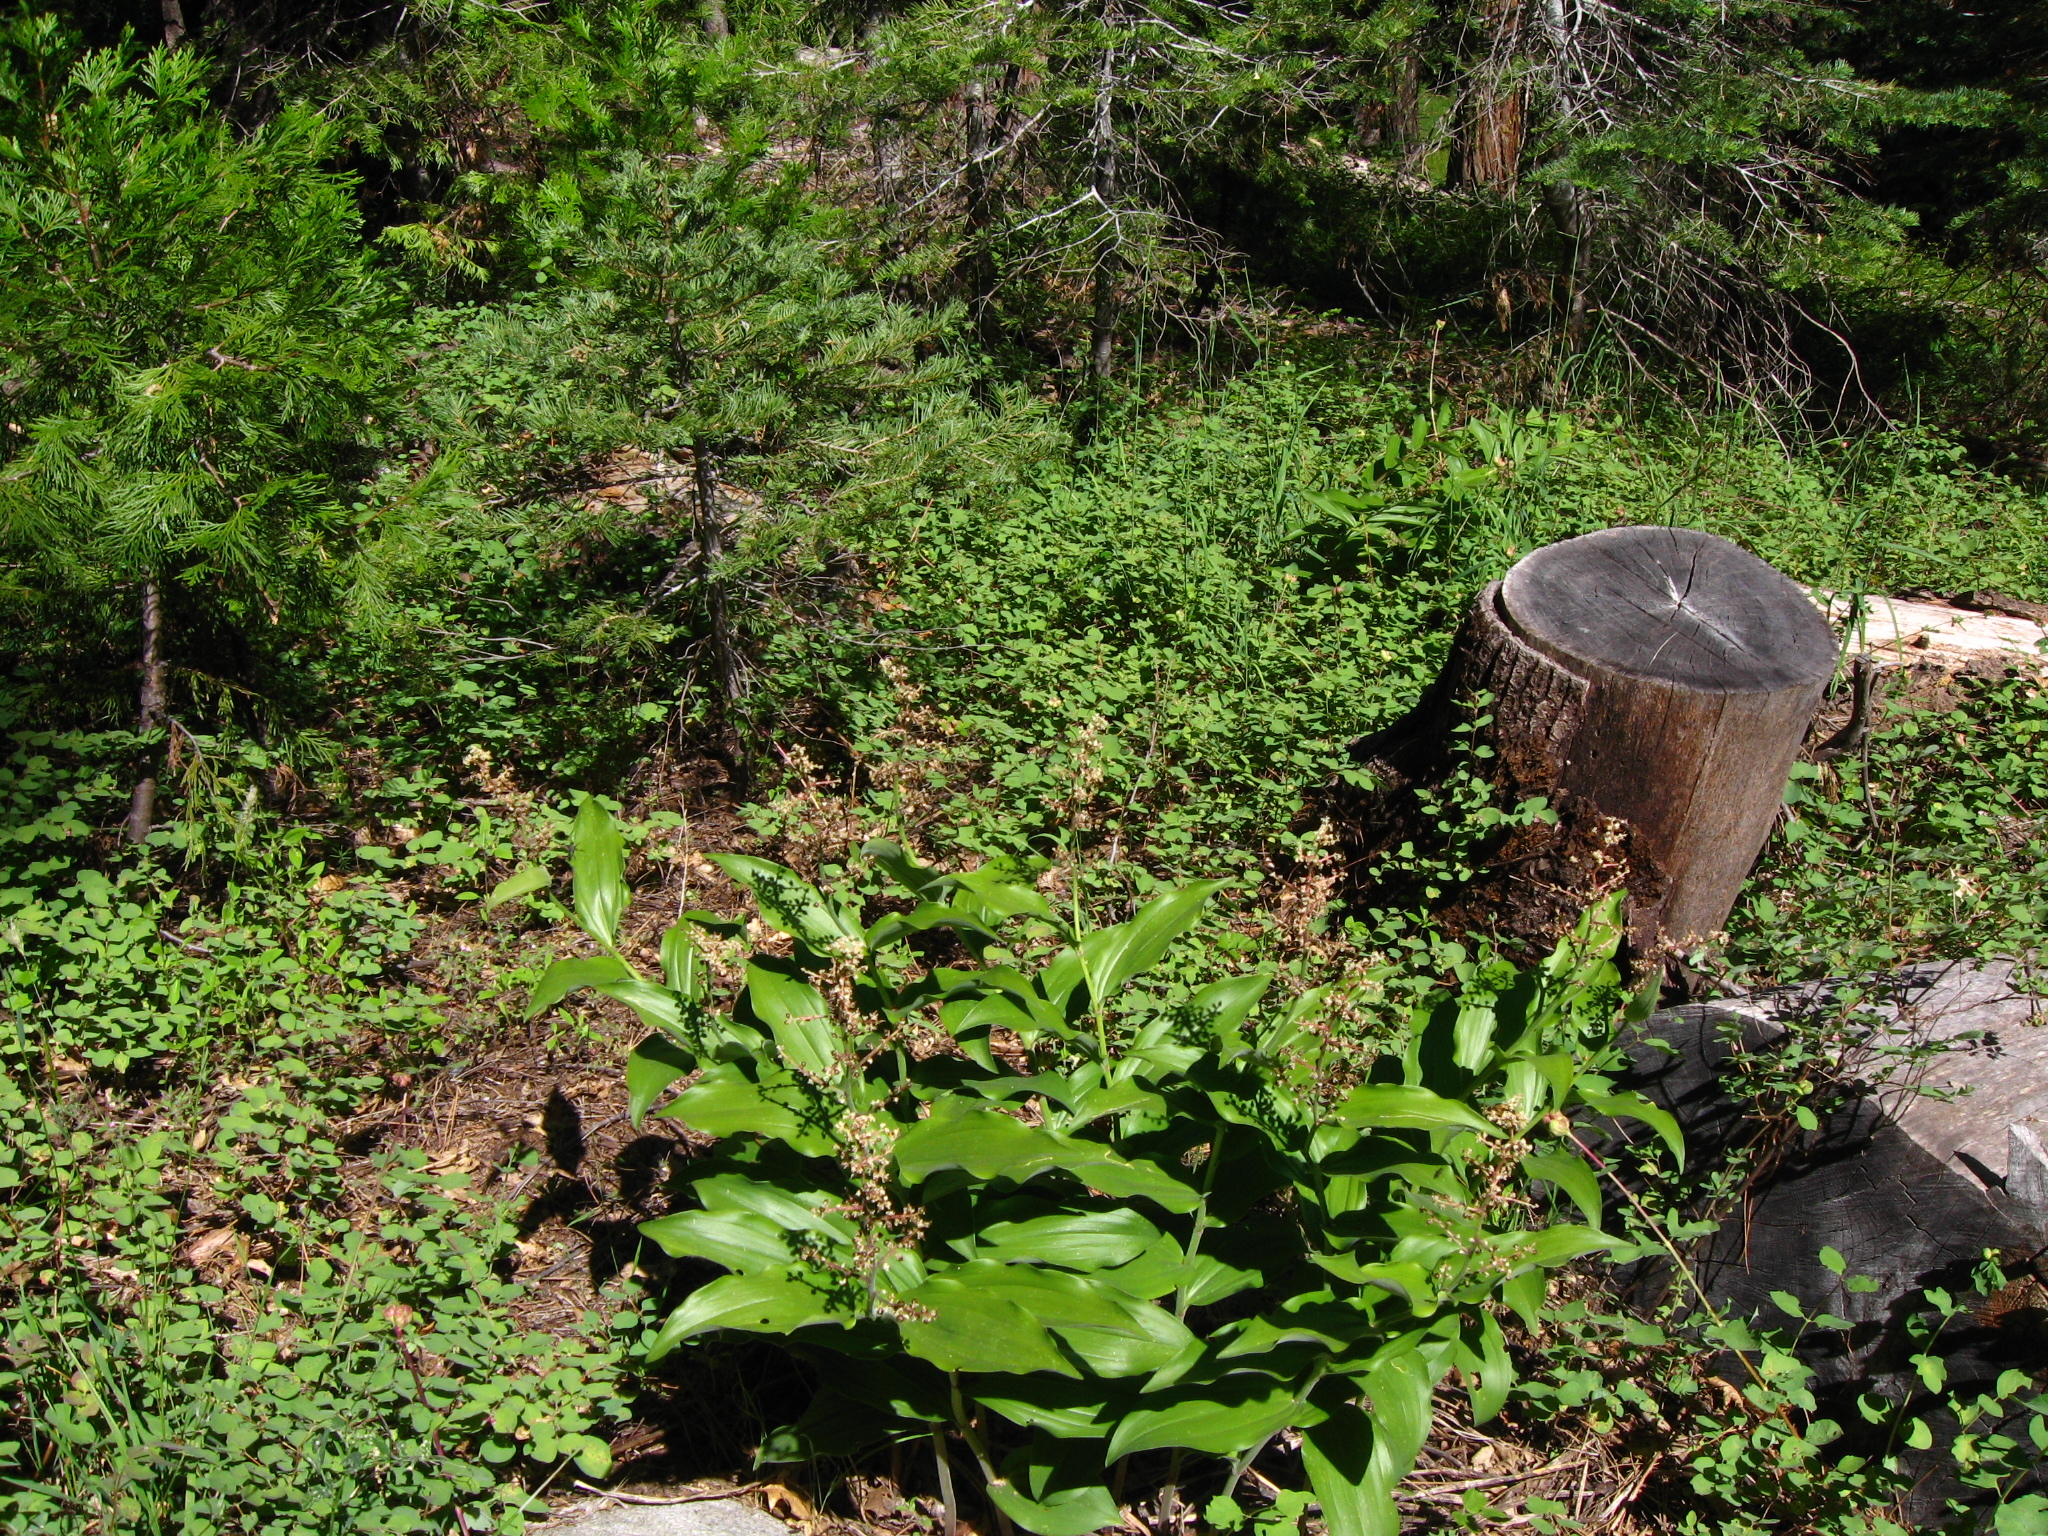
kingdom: Plantae
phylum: Tracheophyta
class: Liliopsida
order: Asparagales
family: Asparagaceae
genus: Maianthemum
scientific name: Maianthemum racemosum
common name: False spikenard
